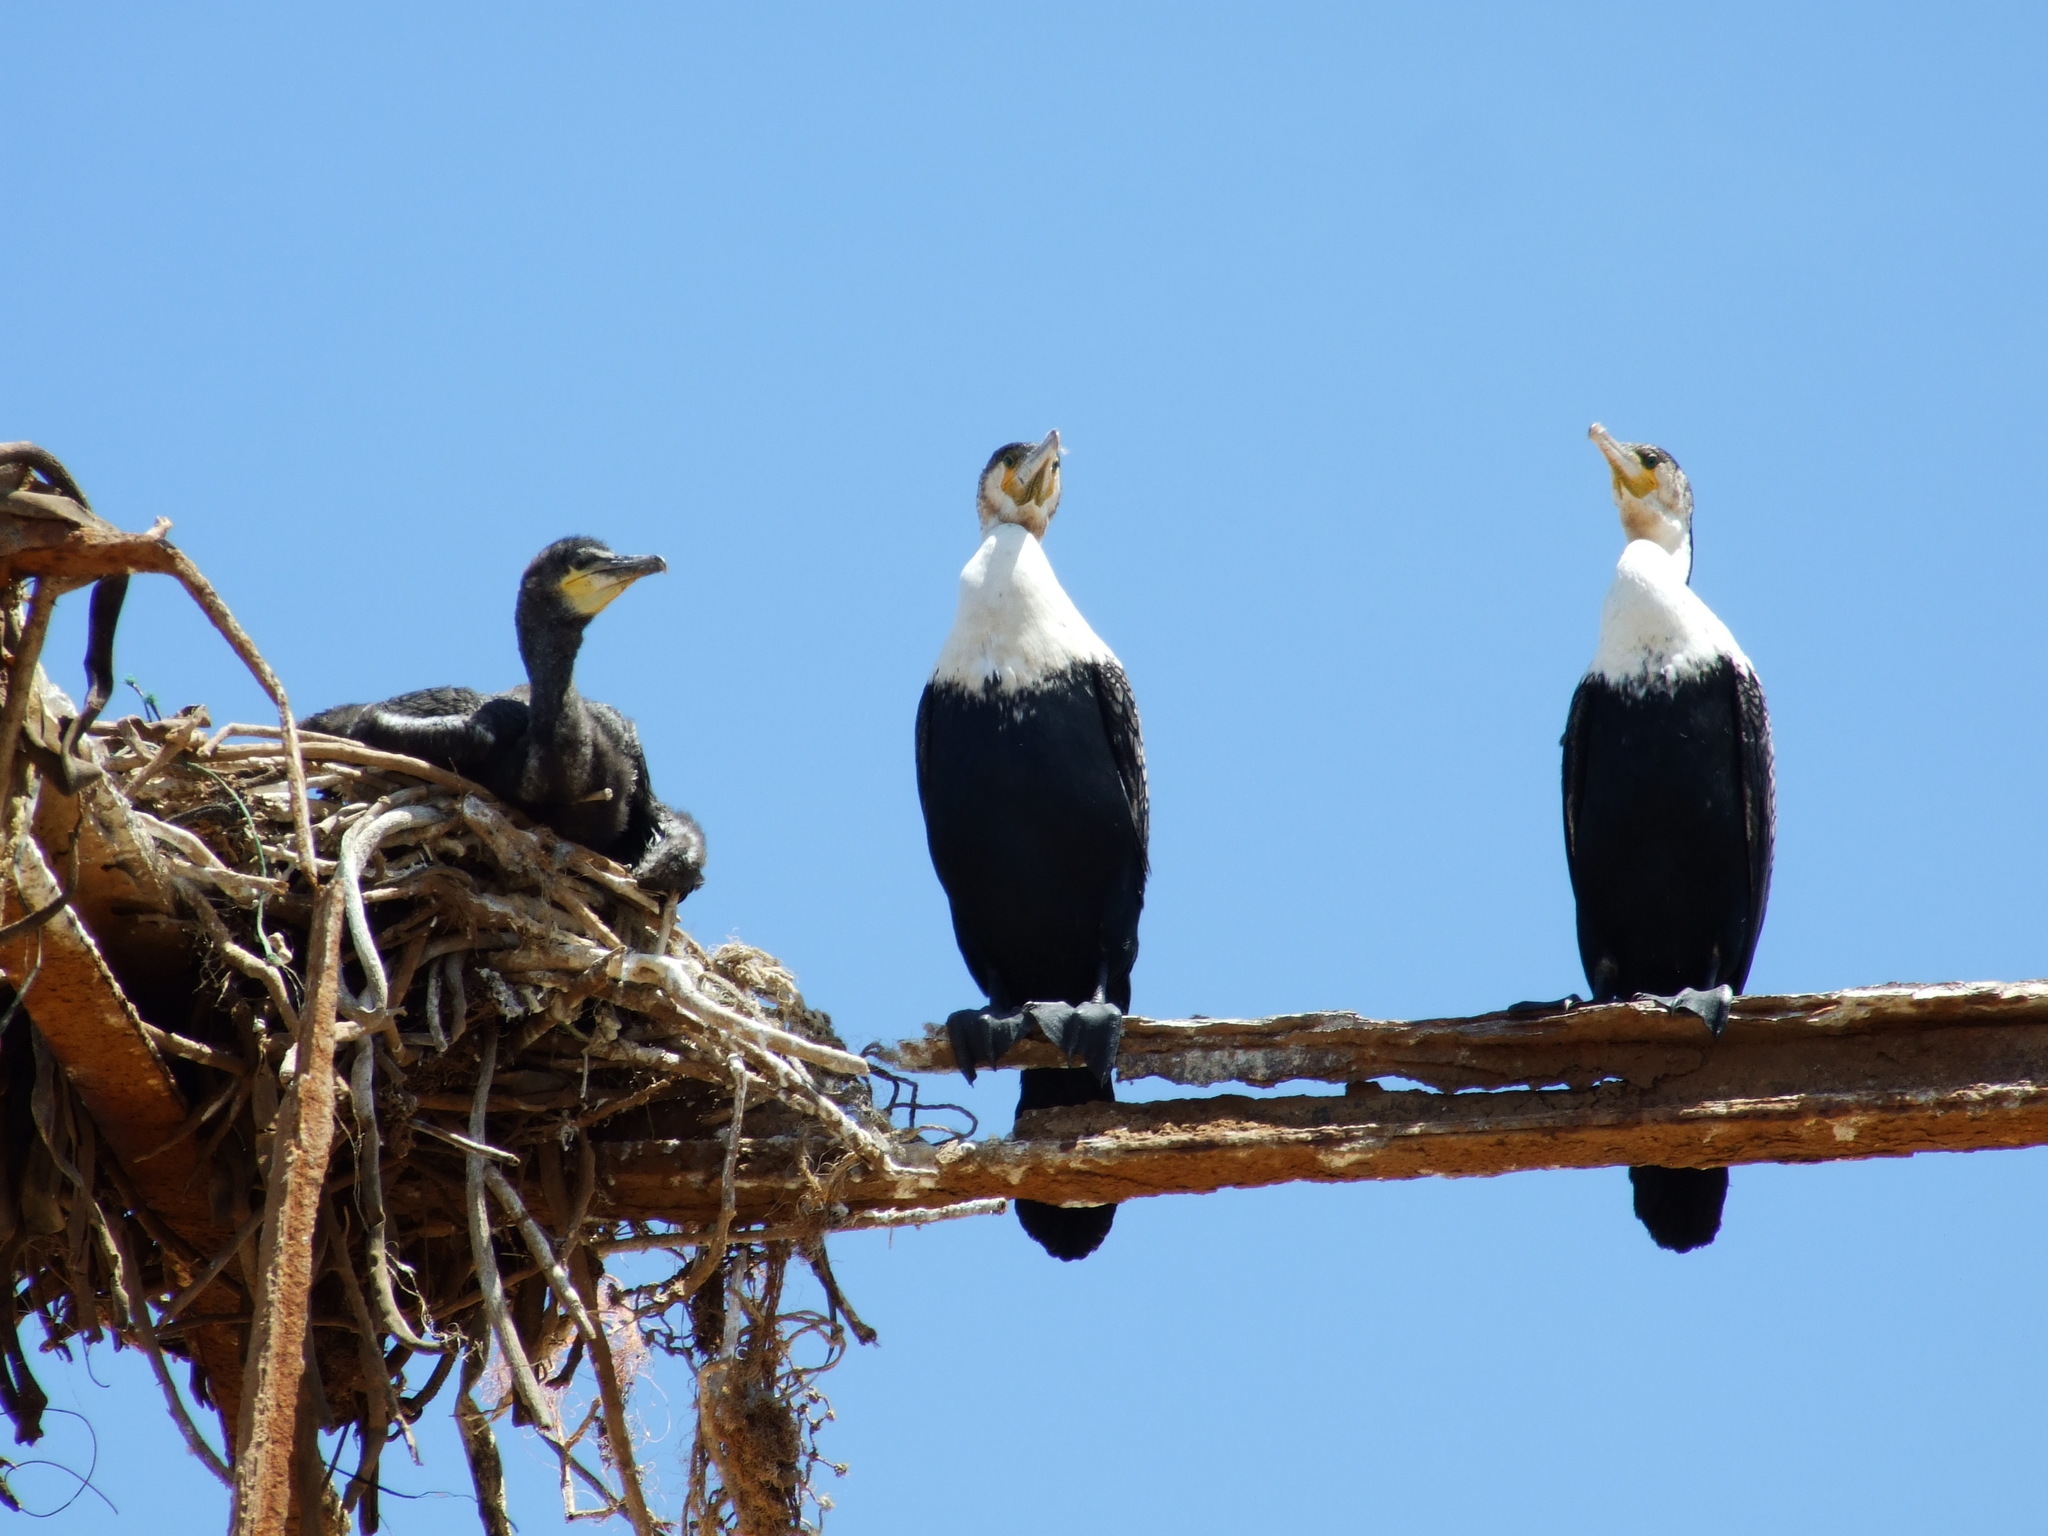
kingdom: Animalia
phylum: Chordata
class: Aves
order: Suliformes
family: Phalacrocoracidae
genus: Phalacrocorax
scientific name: Phalacrocorax carbo
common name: Great cormorant
